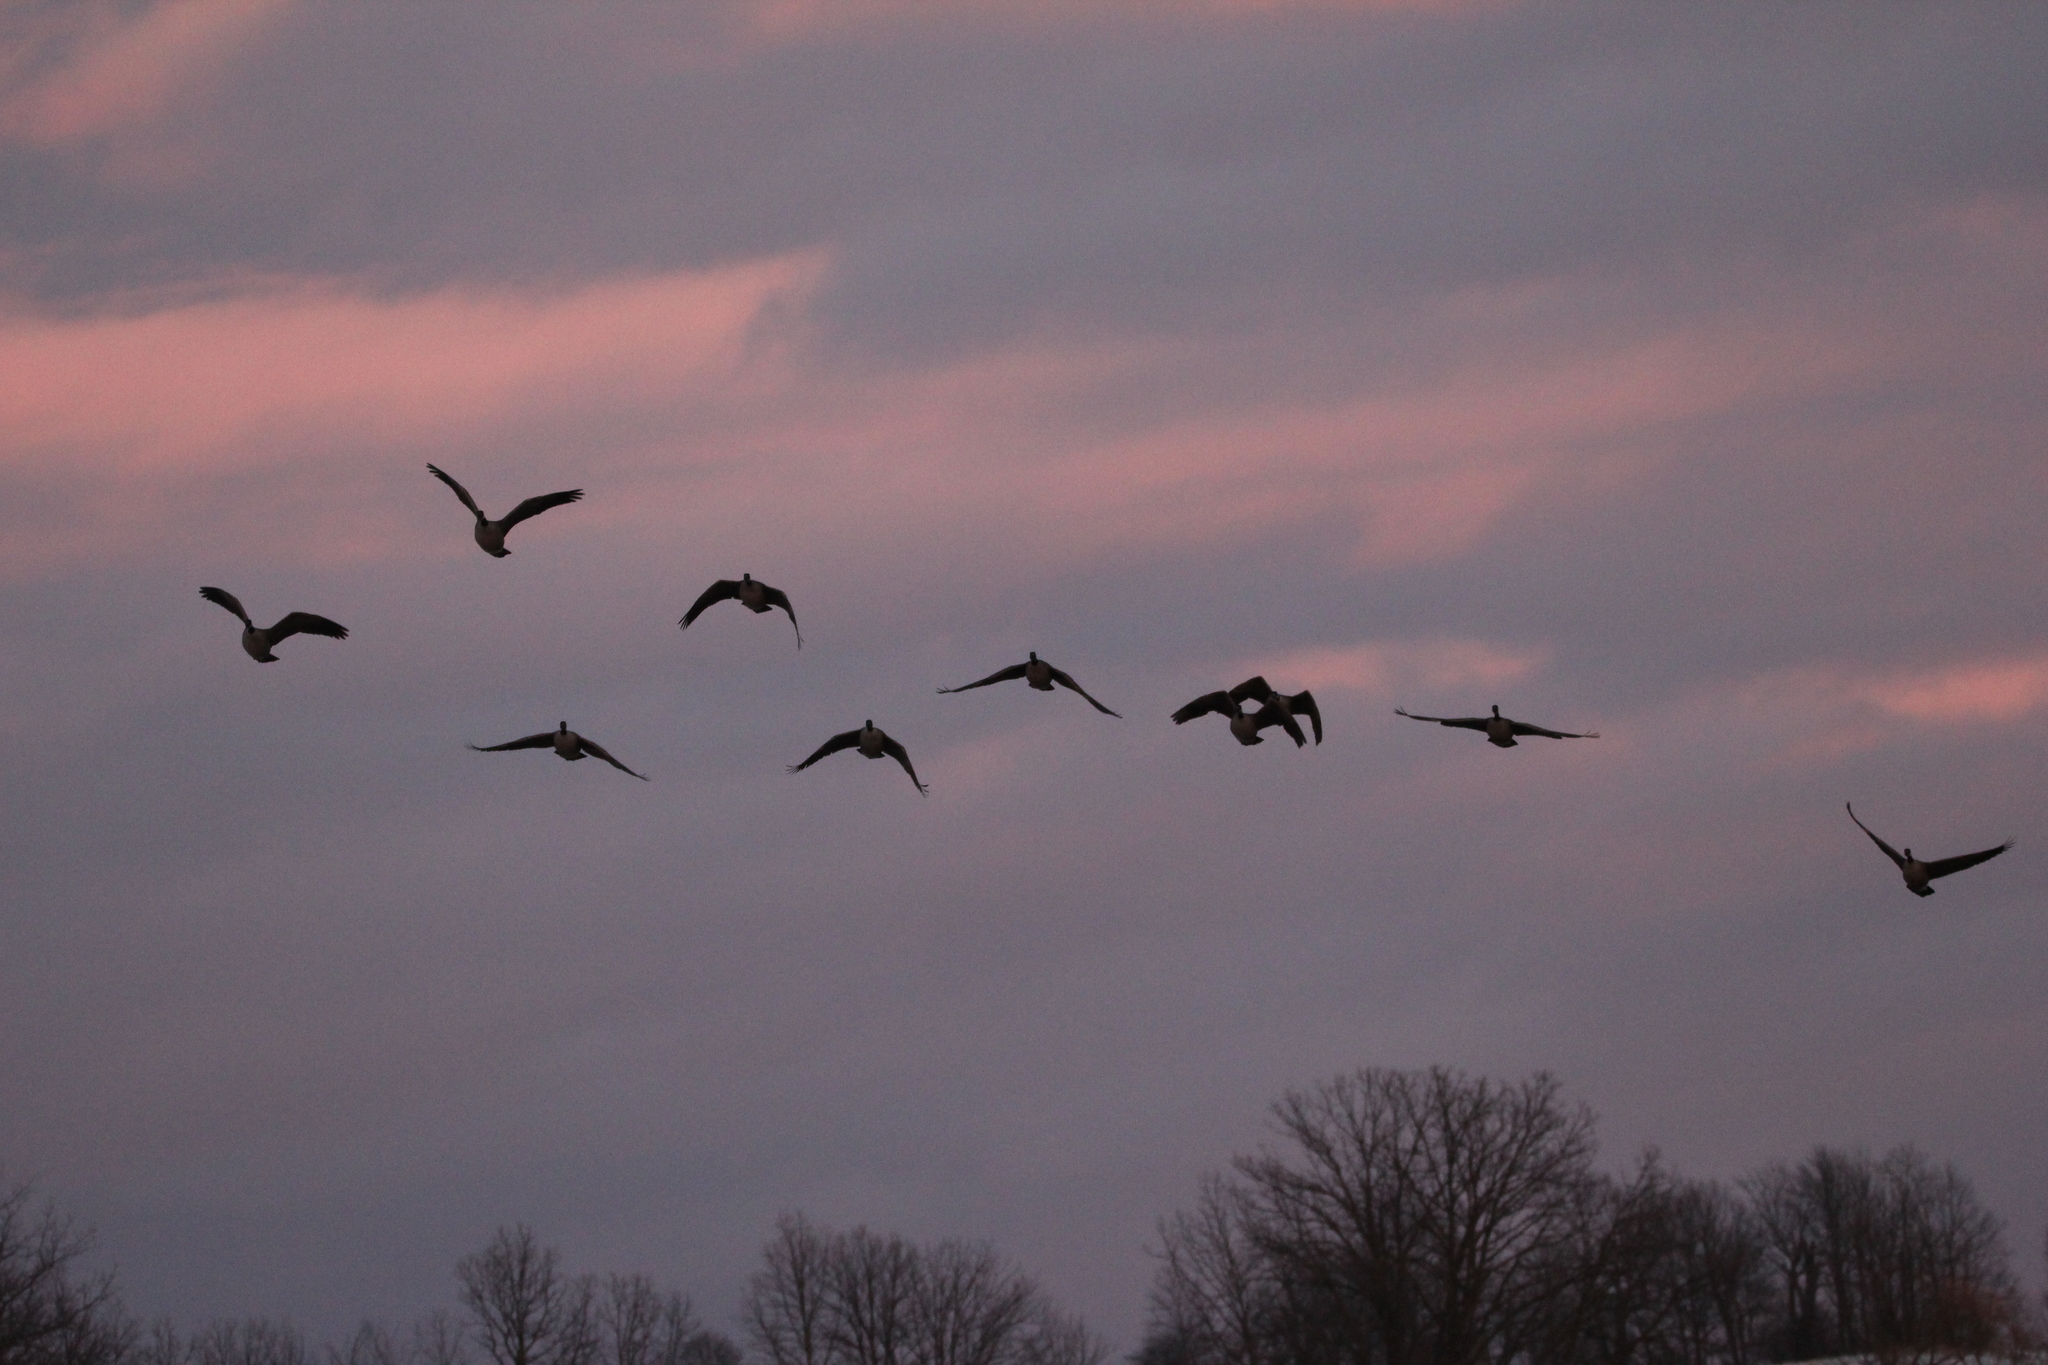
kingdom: Animalia
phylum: Chordata
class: Aves
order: Anseriformes
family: Anatidae
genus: Branta
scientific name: Branta canadensis
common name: Canada goose
